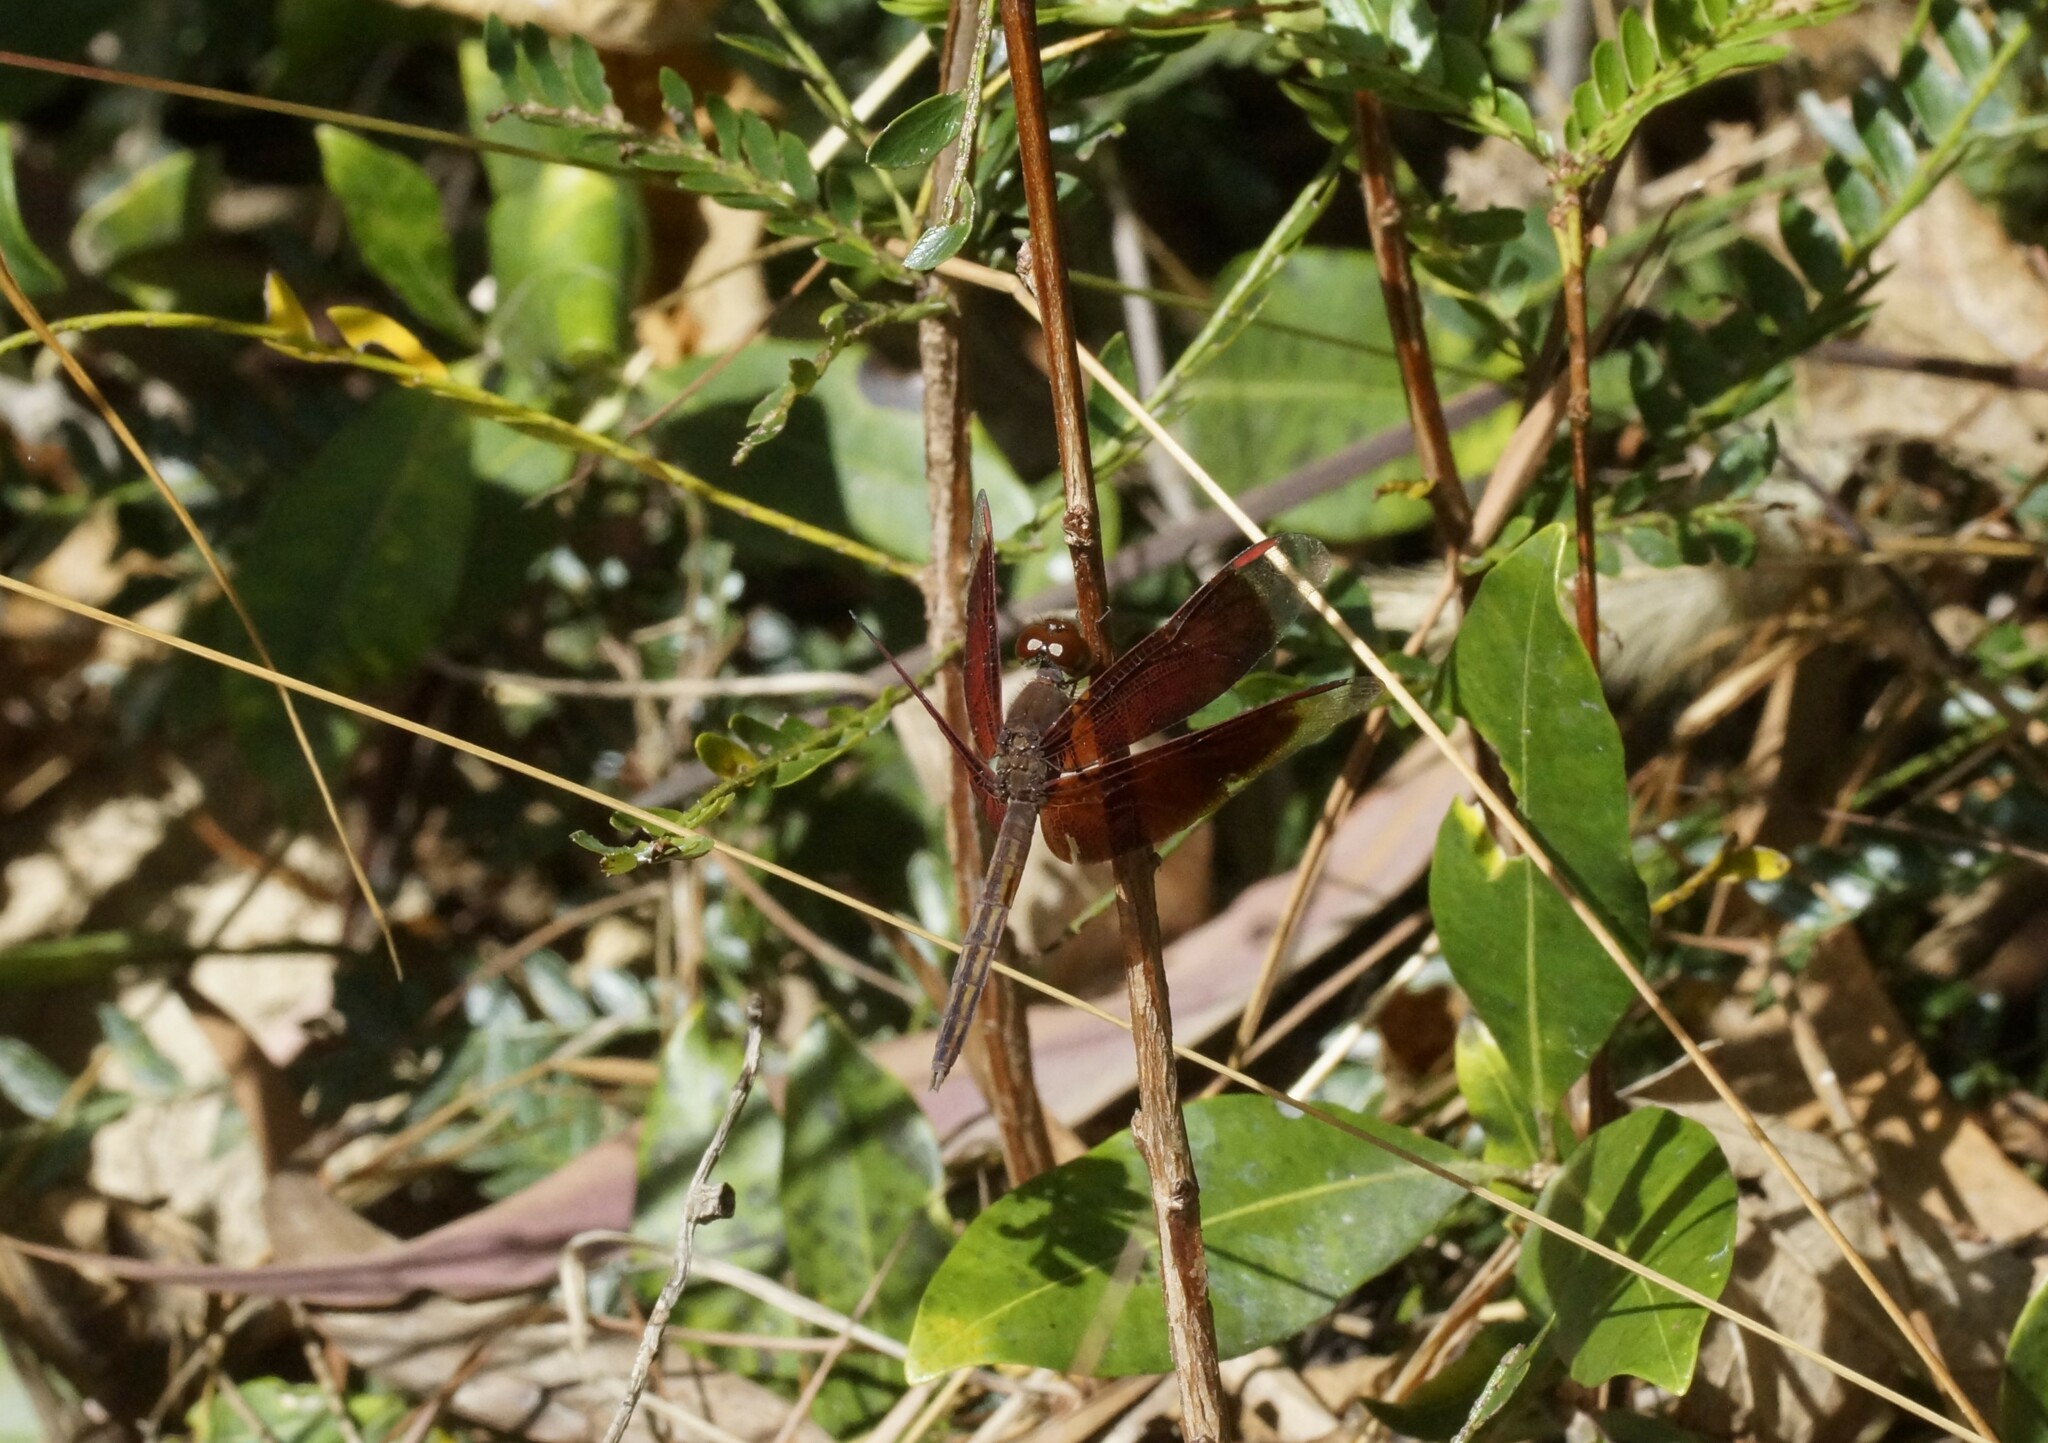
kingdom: Animalia
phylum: Arthropoda
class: Insecta
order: Odonata
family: Libellulidae
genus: Neurothemis
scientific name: Neurothemis stigmatizans
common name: Painted grasshawk
